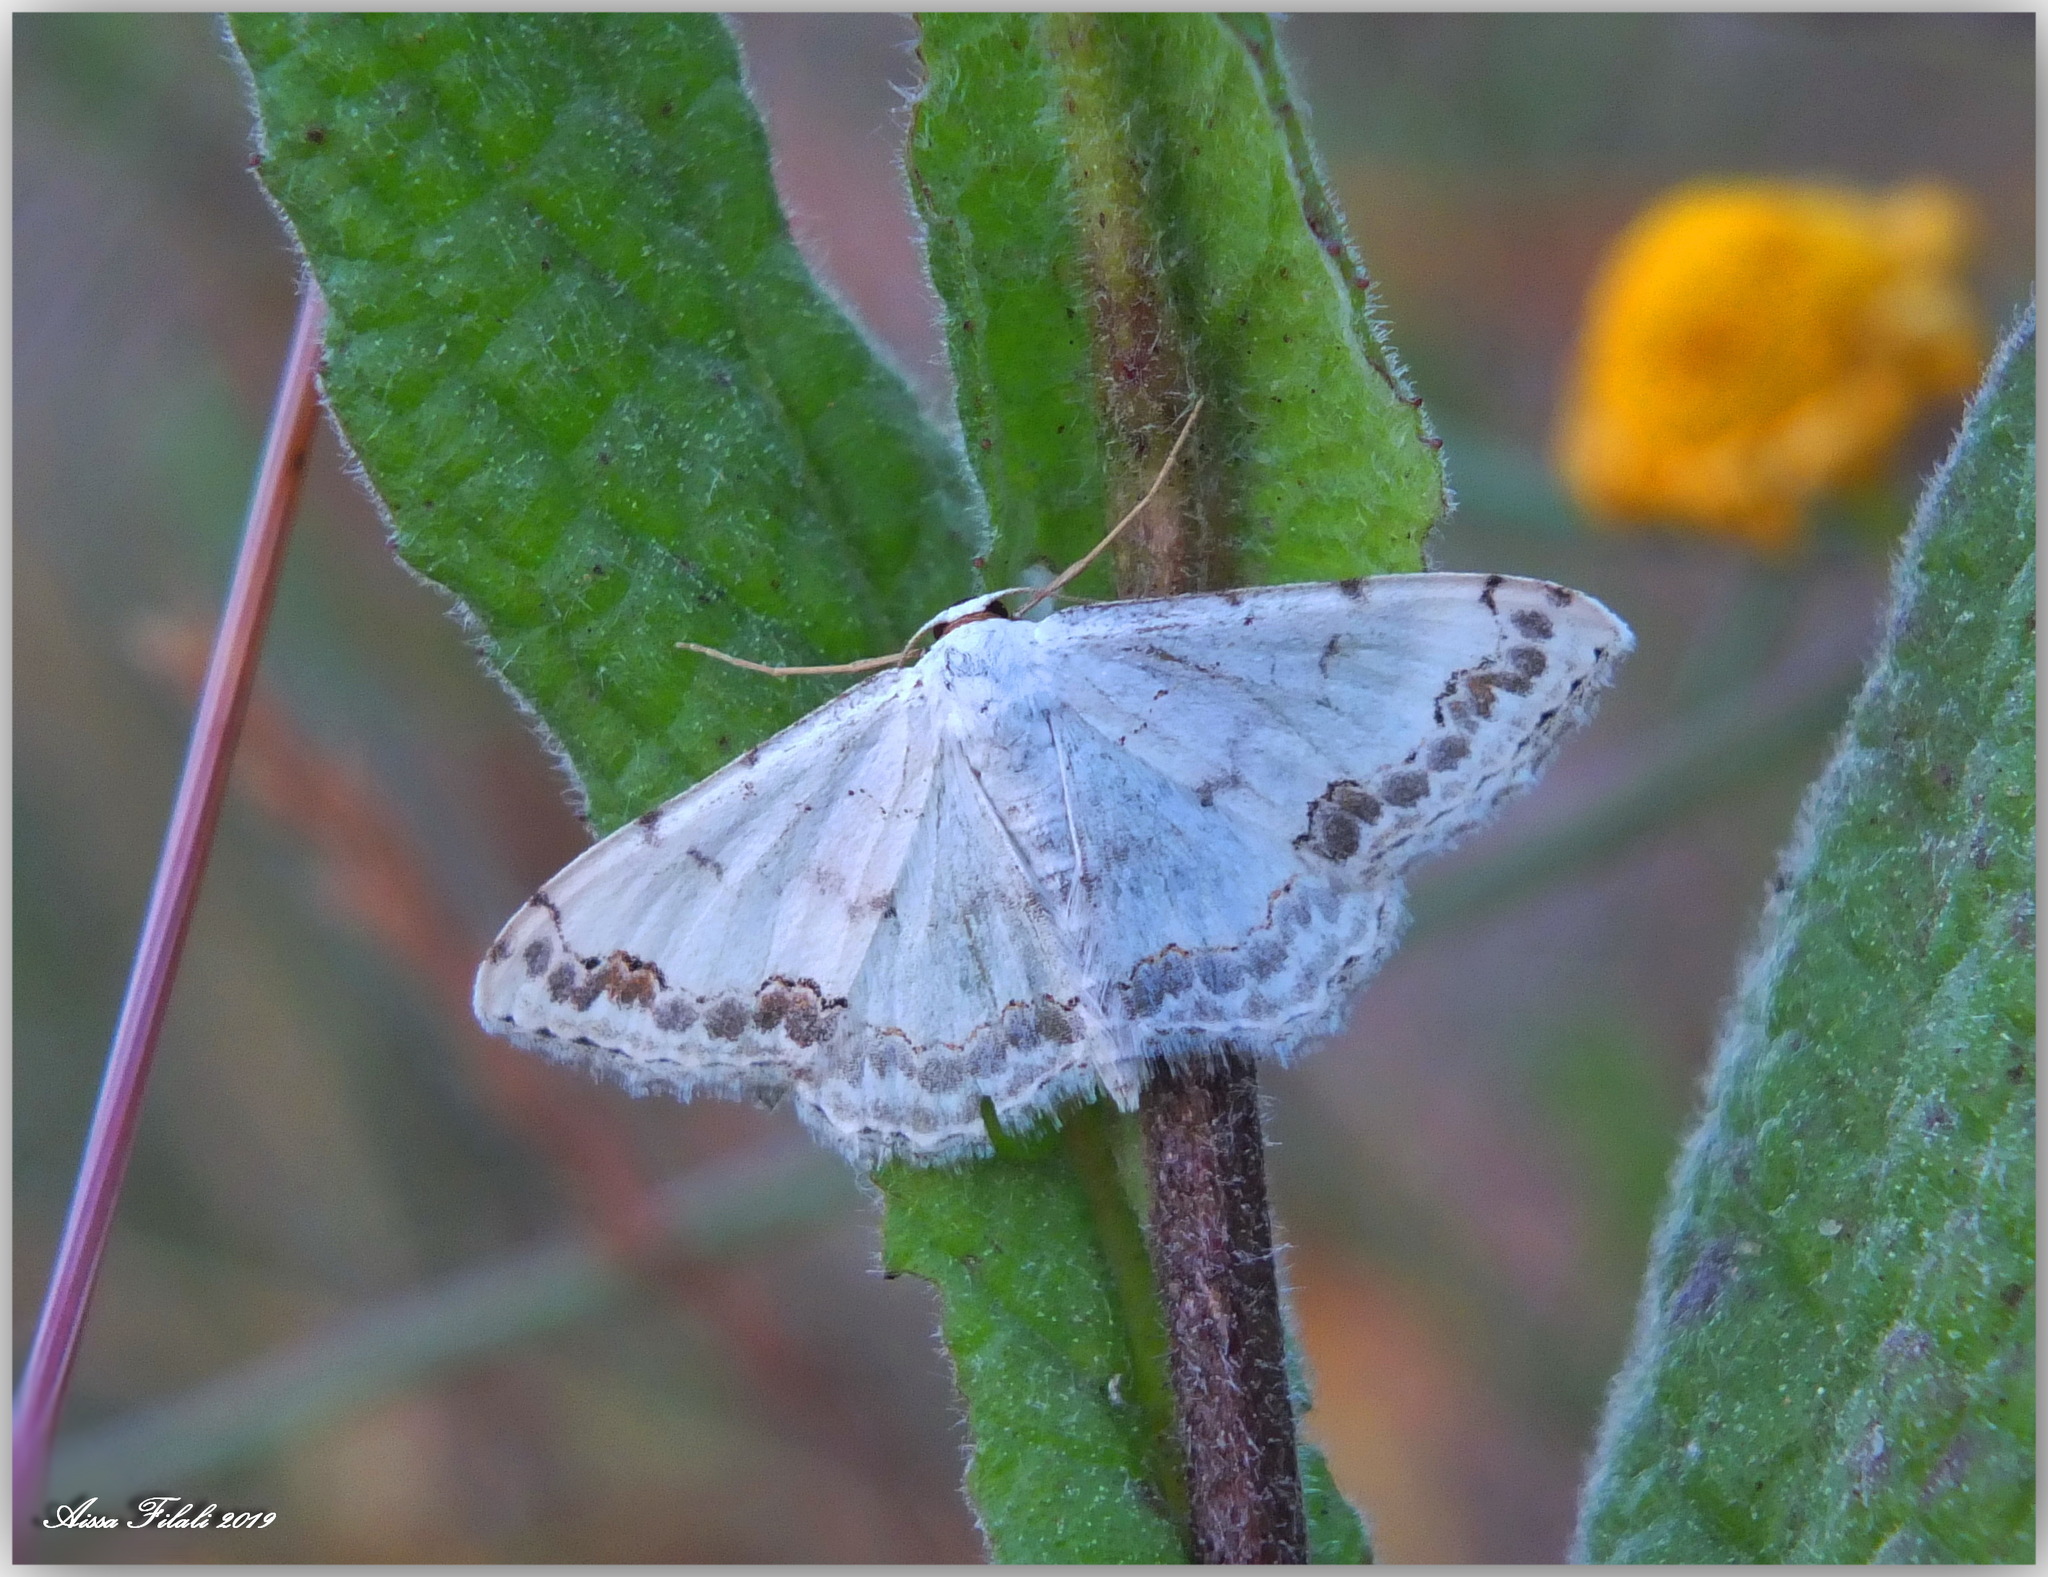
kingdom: Animalia
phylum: Arthropoda
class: Insecta
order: Lepidoptera
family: Geometridae
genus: Scopula
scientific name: Scopula congruata
